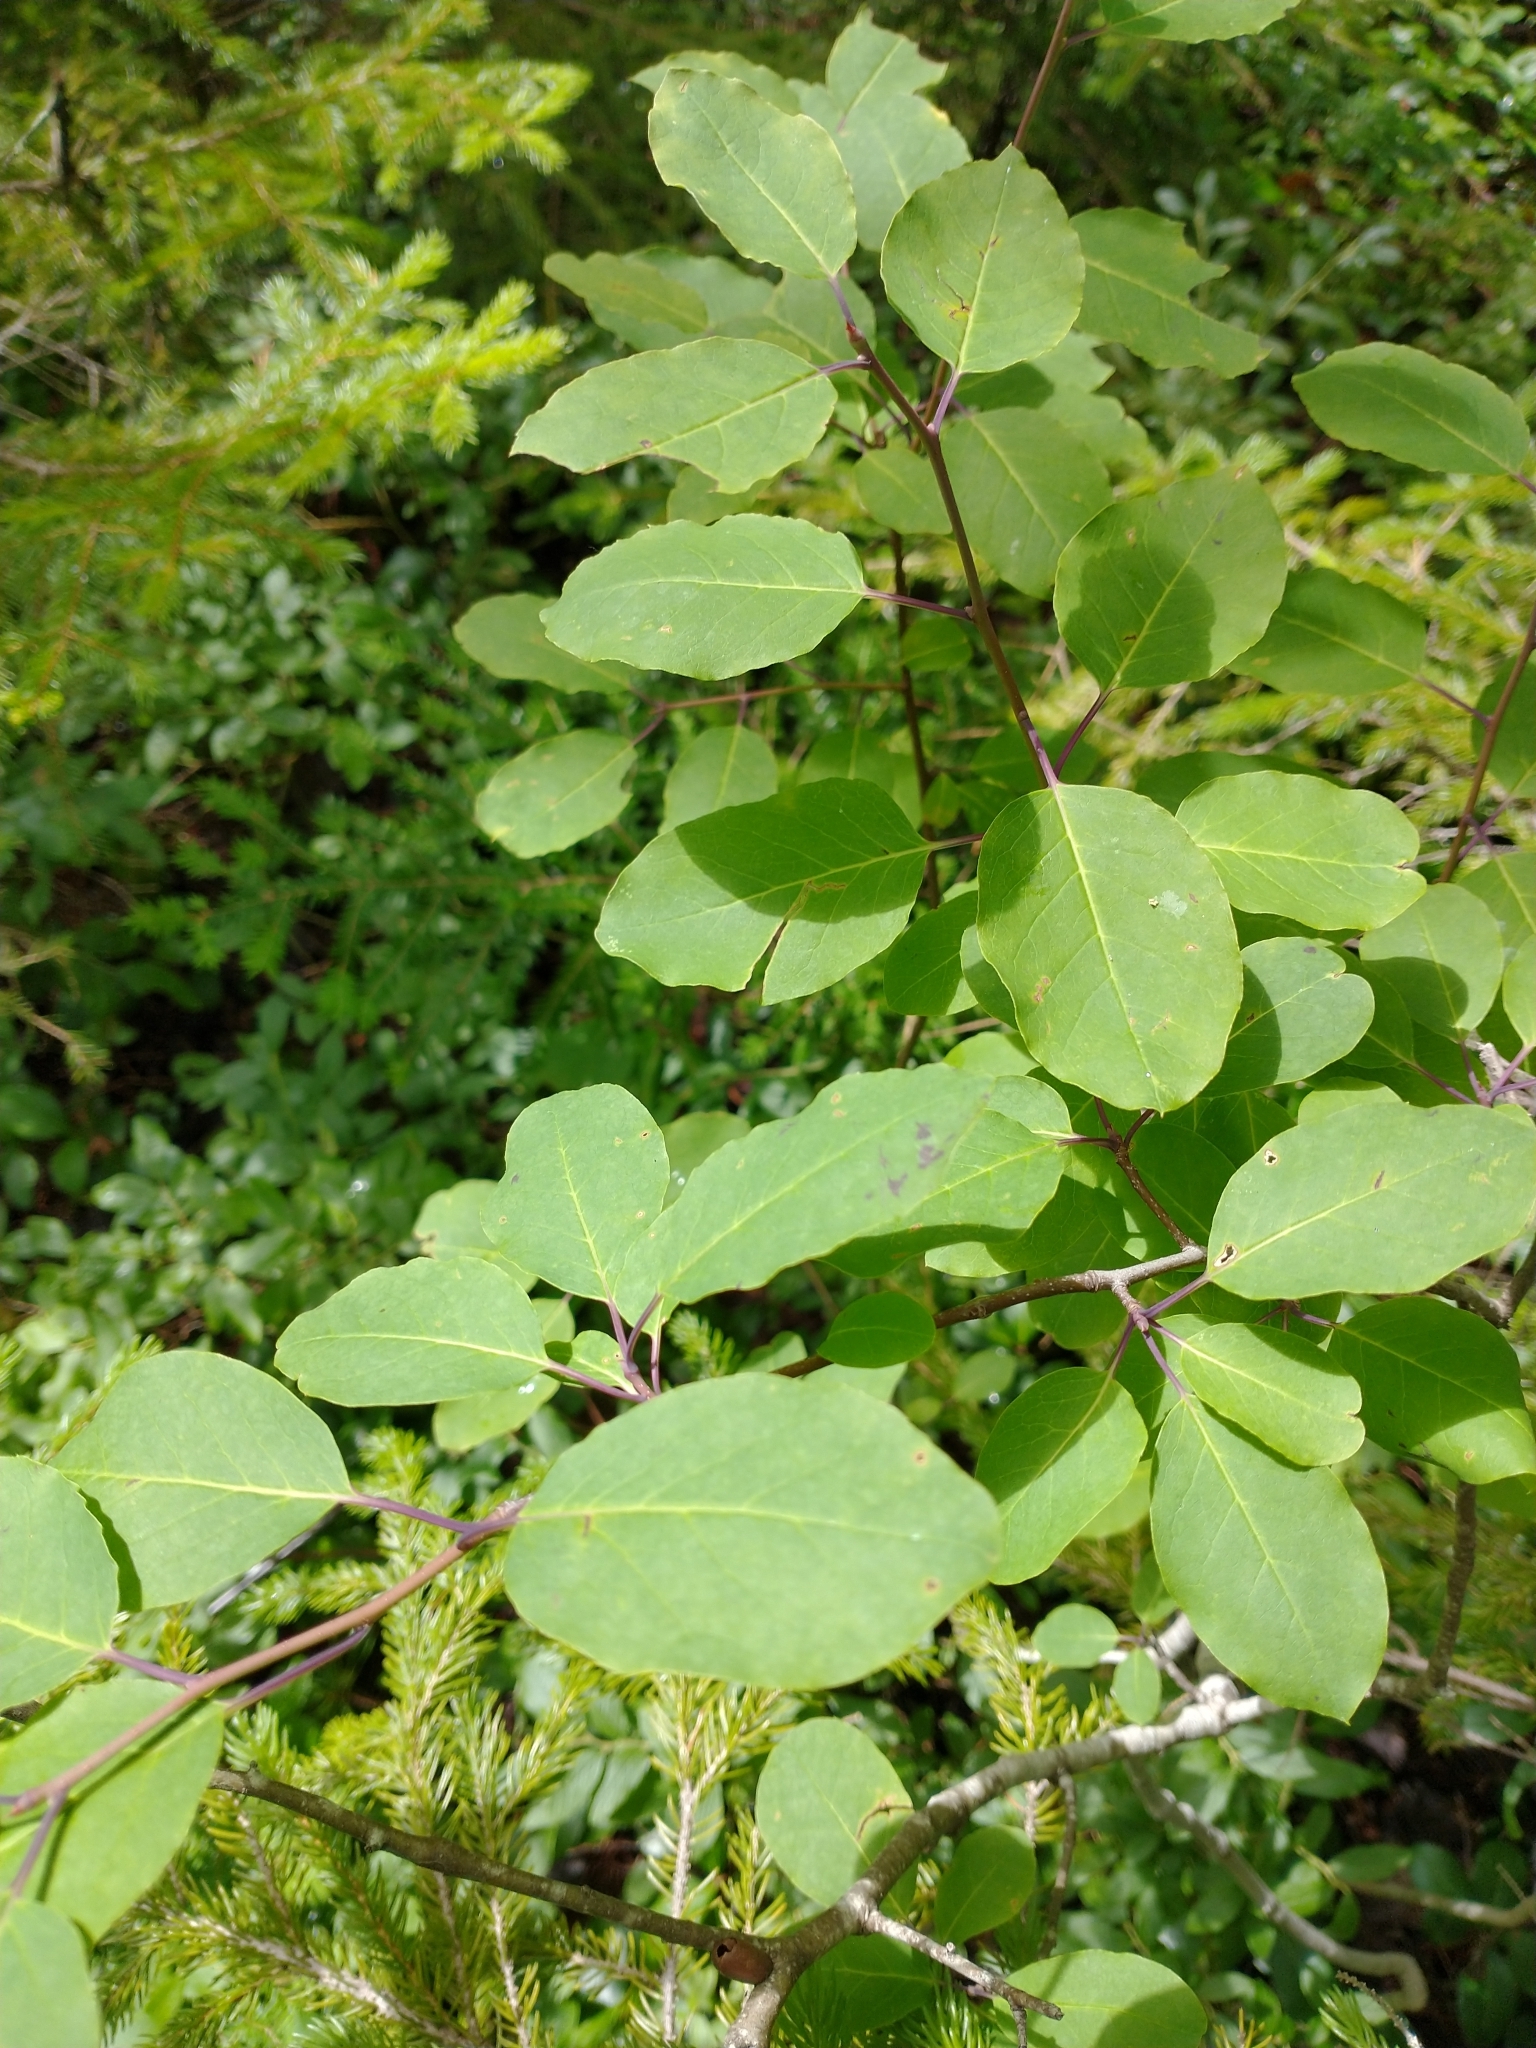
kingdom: Plantae
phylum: Tracheophyta
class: Magnoliopsida
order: Aquifoliales
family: Aquifoliaceae
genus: Ilex
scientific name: Ilex mucronata
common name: Catberry
